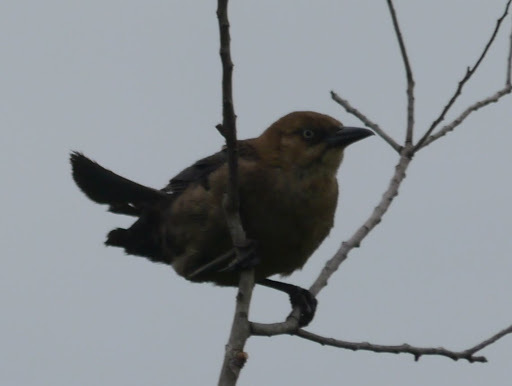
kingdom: Animalia
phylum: Chordata
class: Aves
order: Passeriformes
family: Icteridae
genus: Quiscalus
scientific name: Quiscalus major
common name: Boat-tailed grackle
